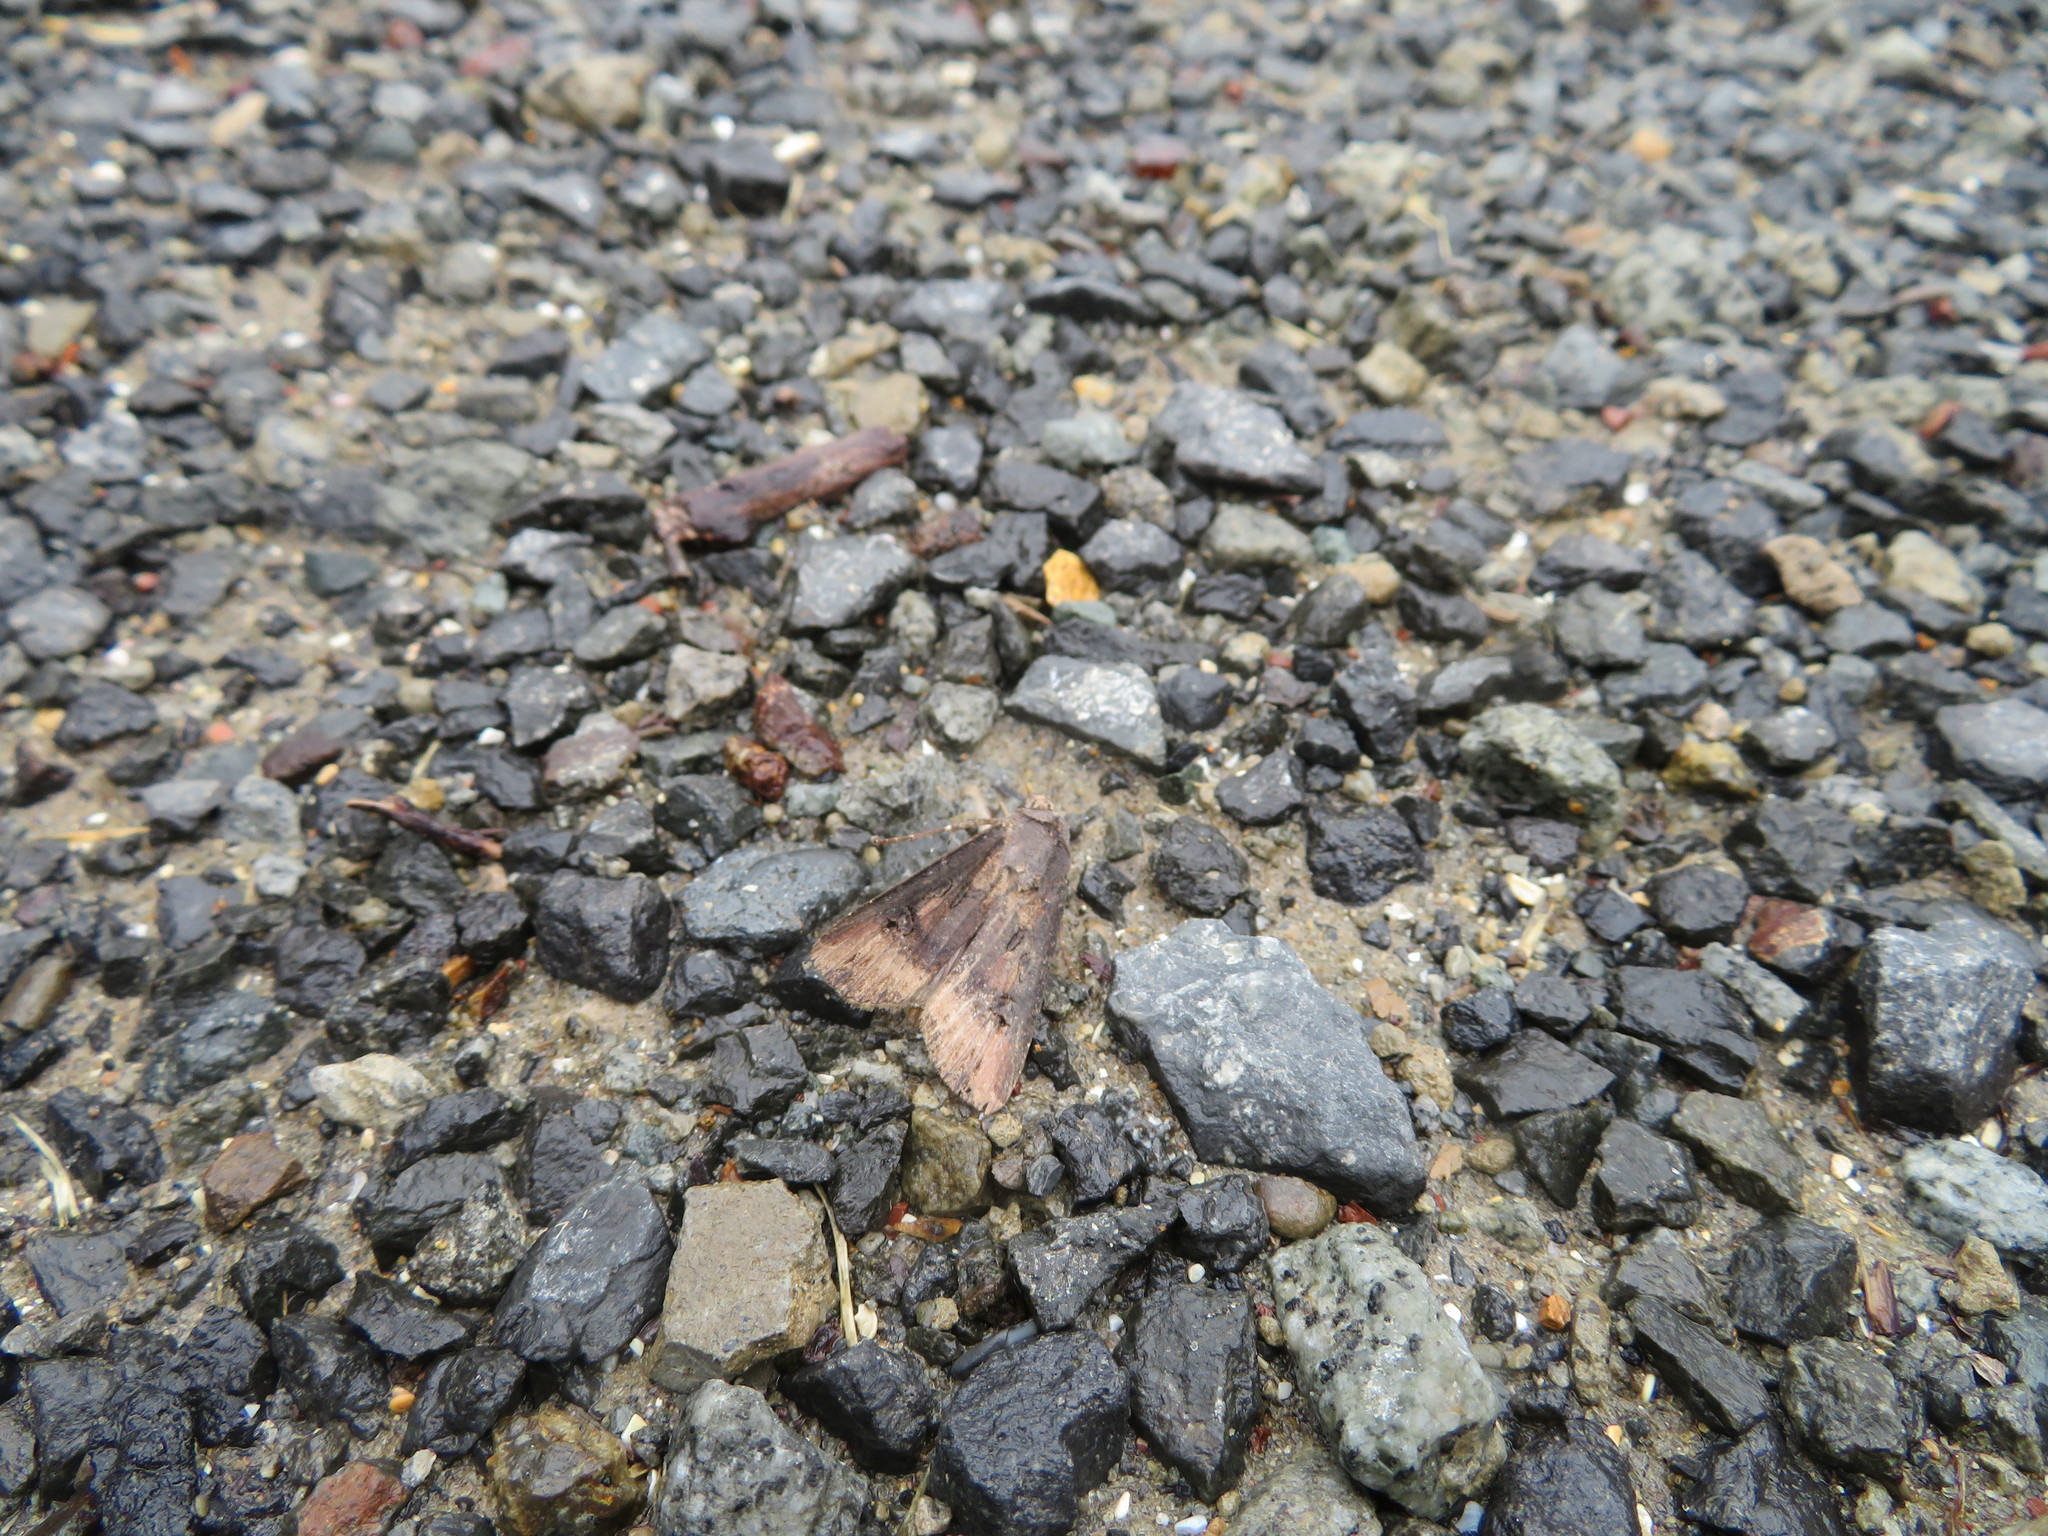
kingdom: Animalia
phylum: Arthropoda
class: Insecta
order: Lepidoptera
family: Noctuidae
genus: Agrotis
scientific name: Agrotis ipsilon
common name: Dark sword-grass
